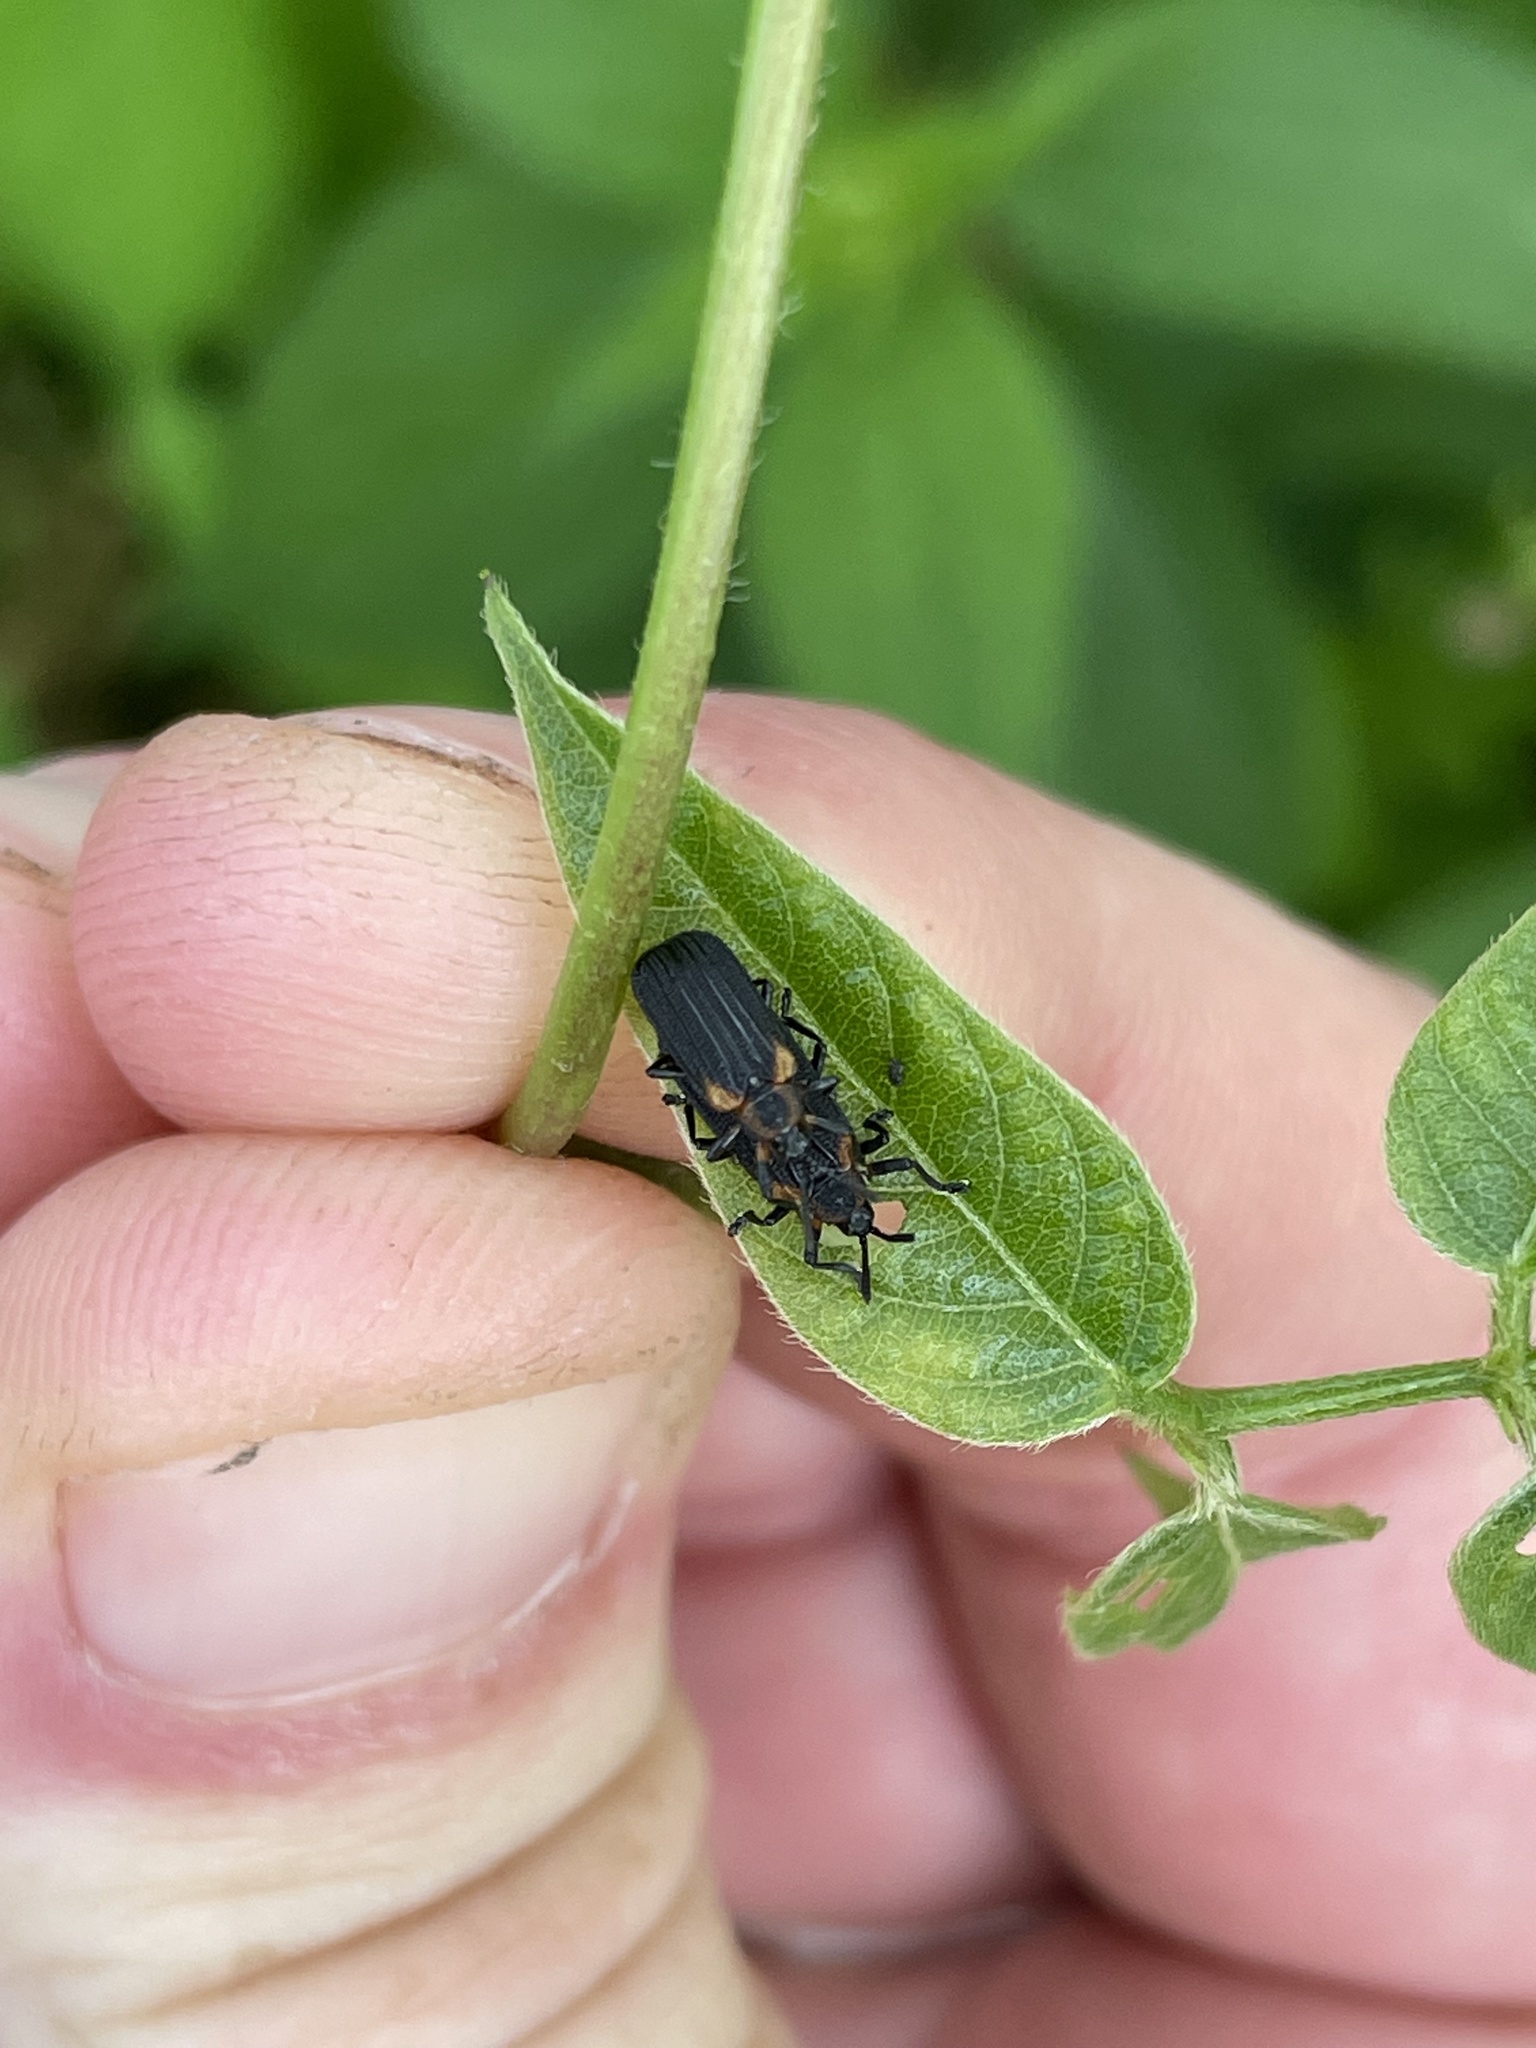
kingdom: Animalia
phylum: Arthropoda
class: Insecta
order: Coleoptera
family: Chrysomelidae
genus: Odontota
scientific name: Odontota scapularis
